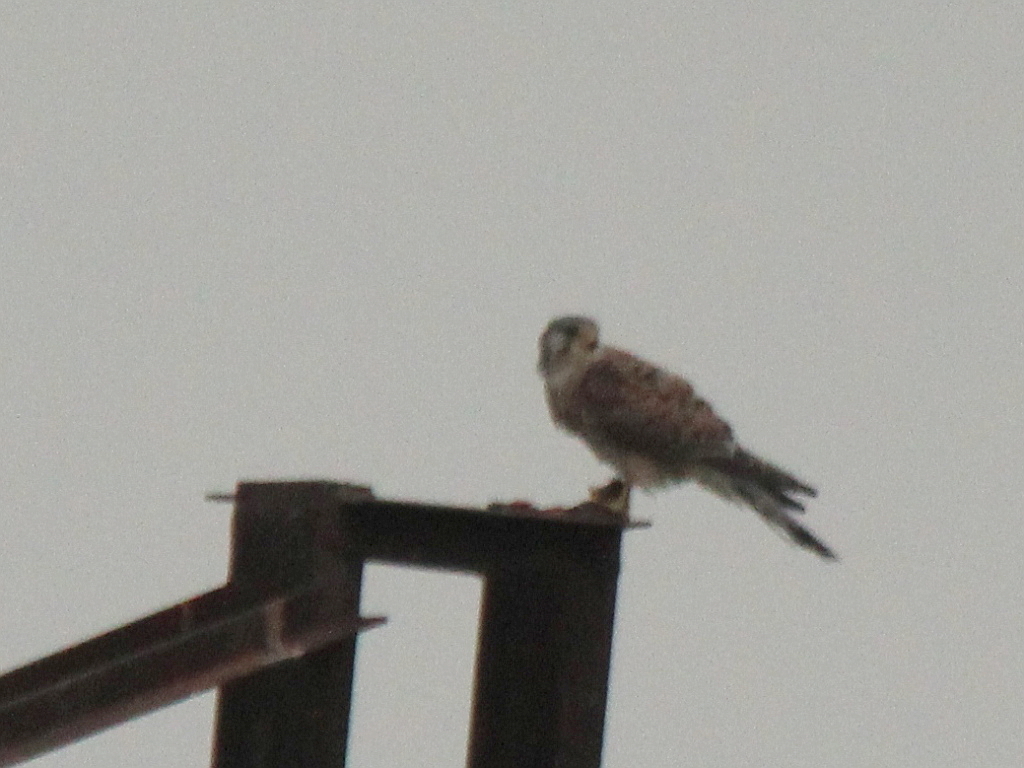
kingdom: Animalia
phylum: Chordata
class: Aves
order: Falconiformes
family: Falconidae
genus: Falco
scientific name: Falco tinnunculus
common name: Common kestrel
